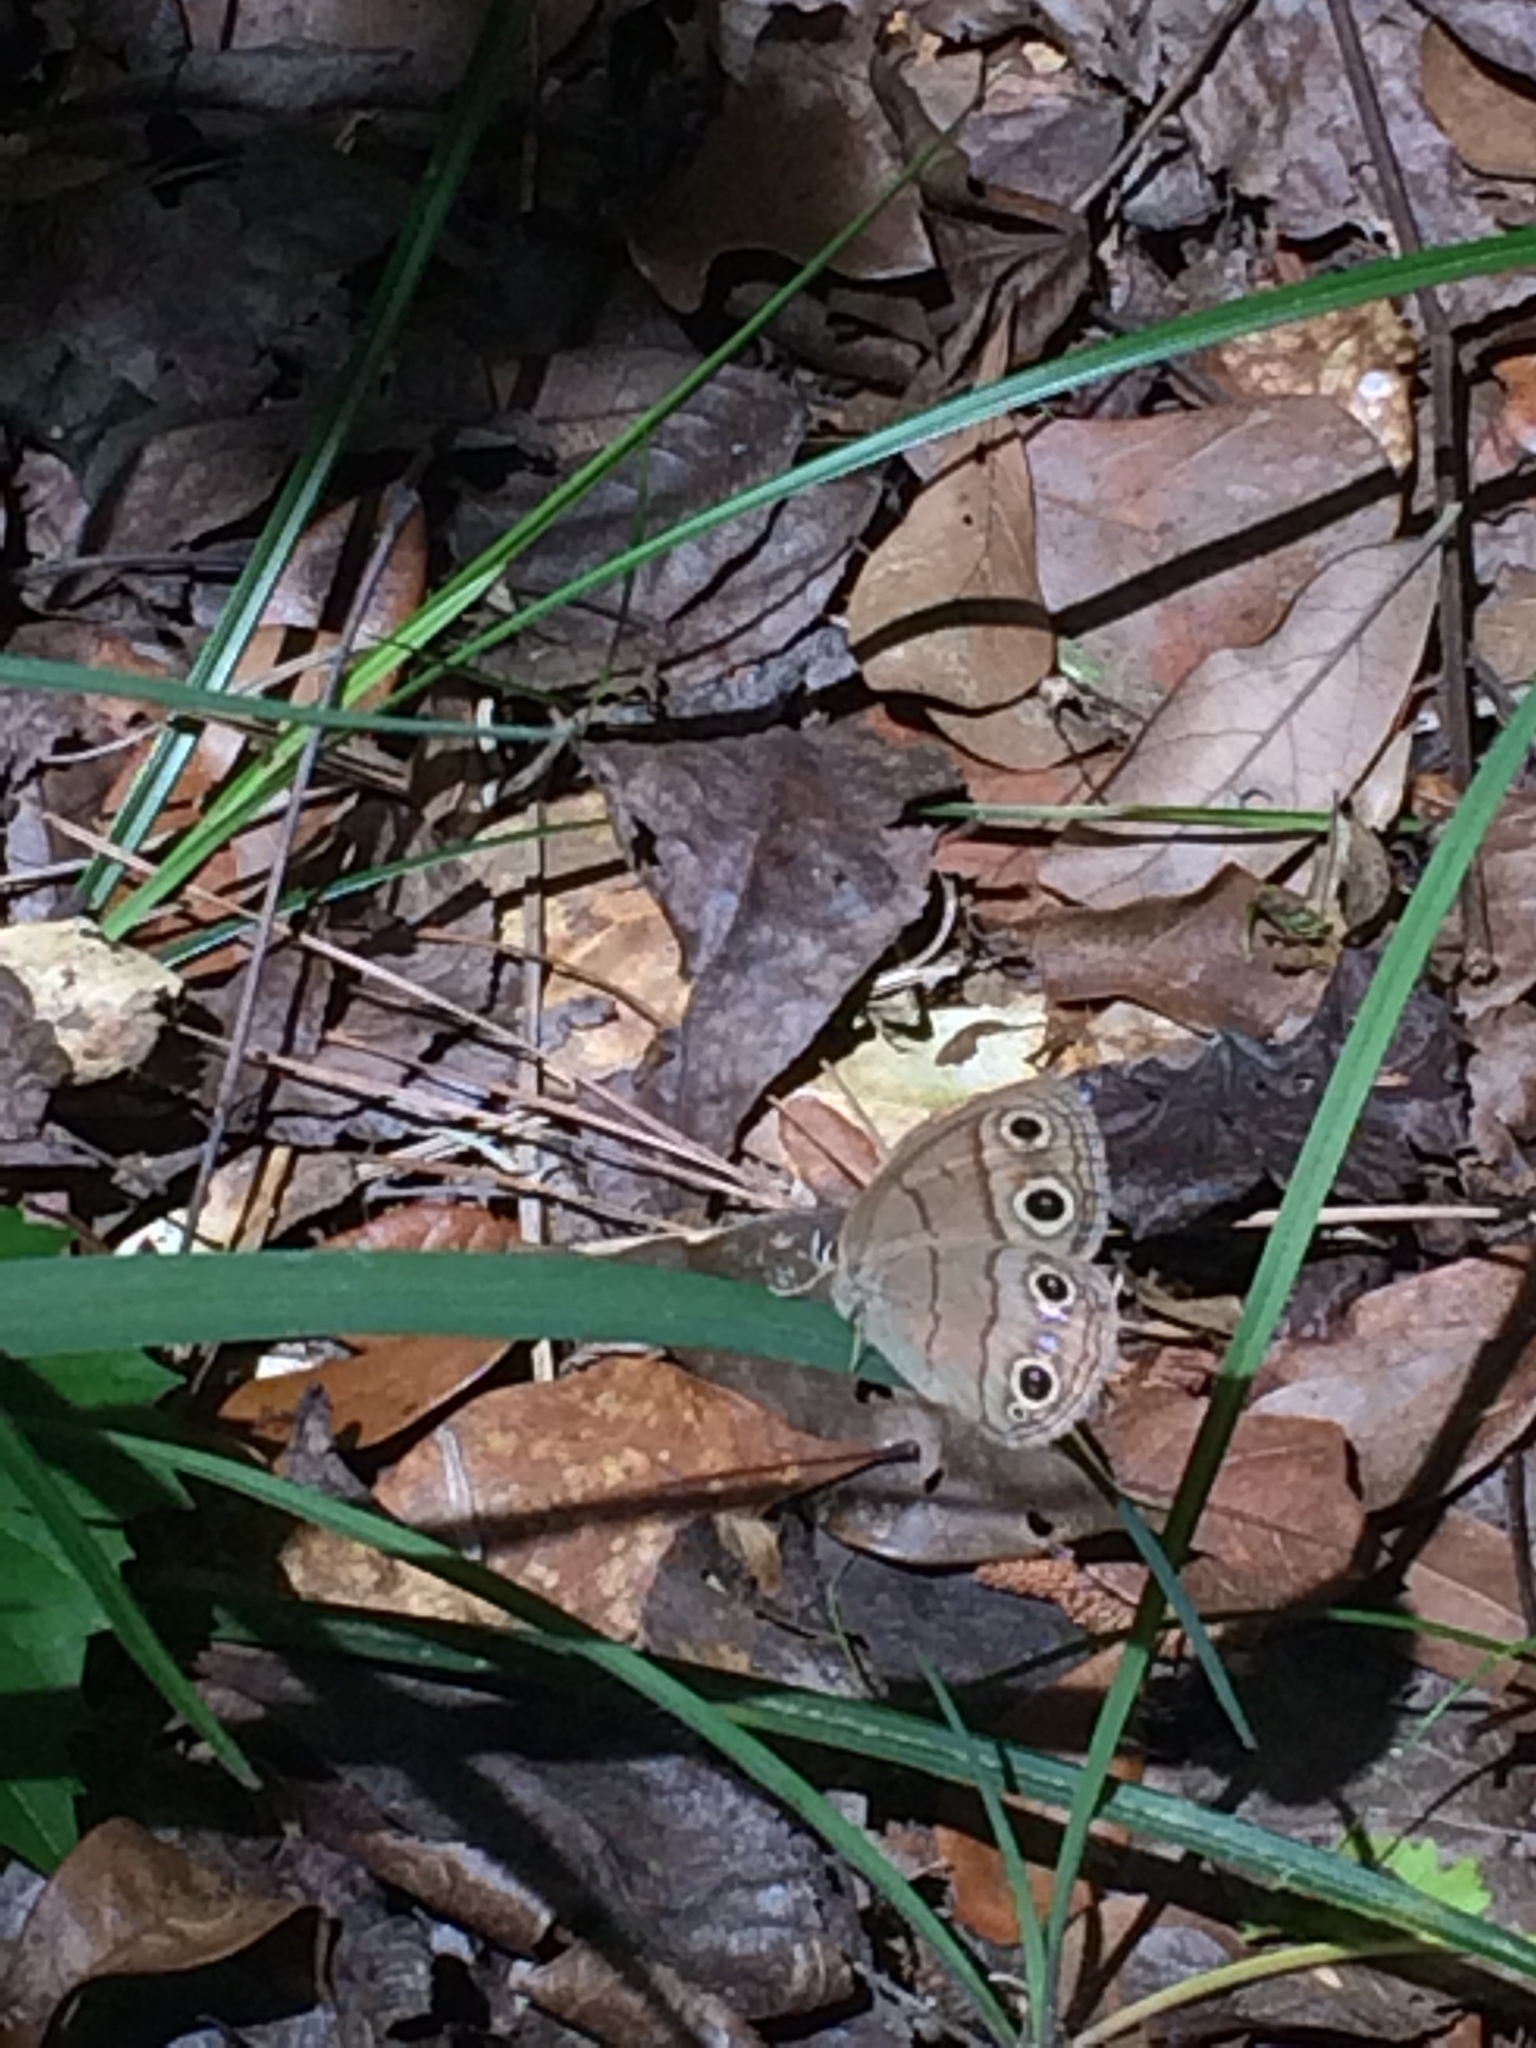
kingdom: Animalia
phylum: Arthropoda
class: Insecta
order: Lepidoptera
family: Nymphalidae
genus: Euptychia
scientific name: Euptychia cymela
